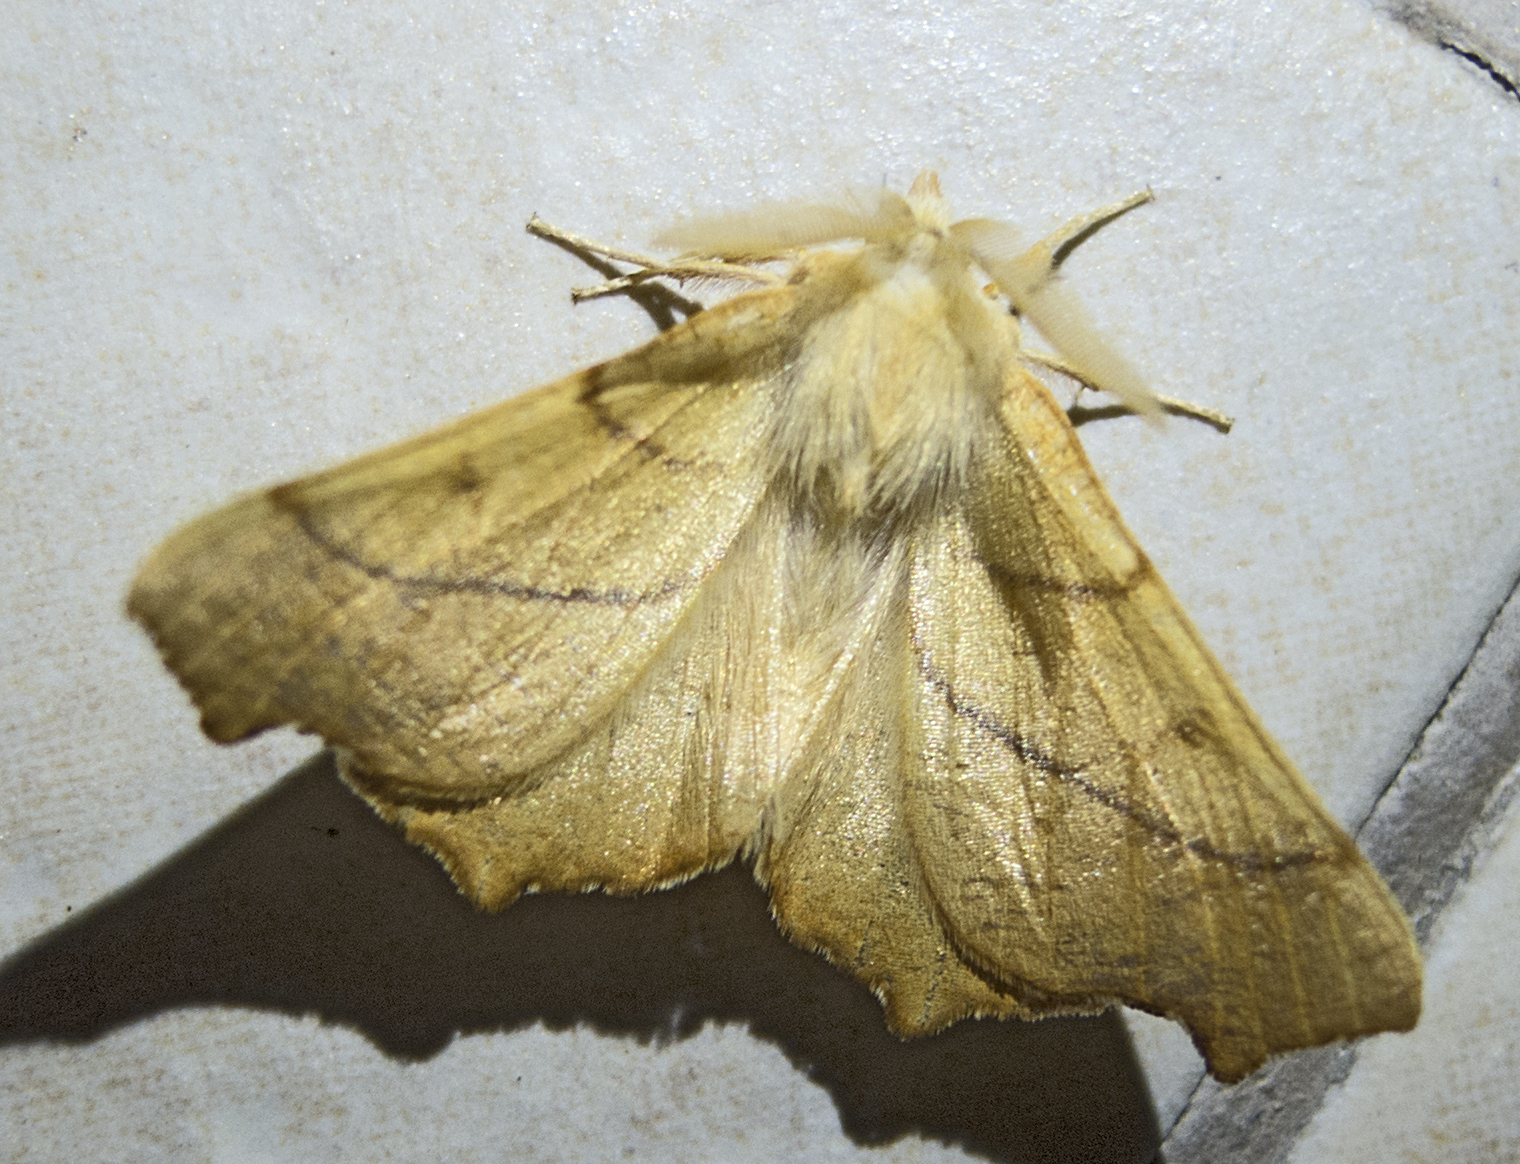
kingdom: Animalia
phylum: Arthropoda
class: Insecta
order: Lepidoptera
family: Geometridae
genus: Ennomos
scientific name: Ennomos fuscantaria
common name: Dusky thorn
